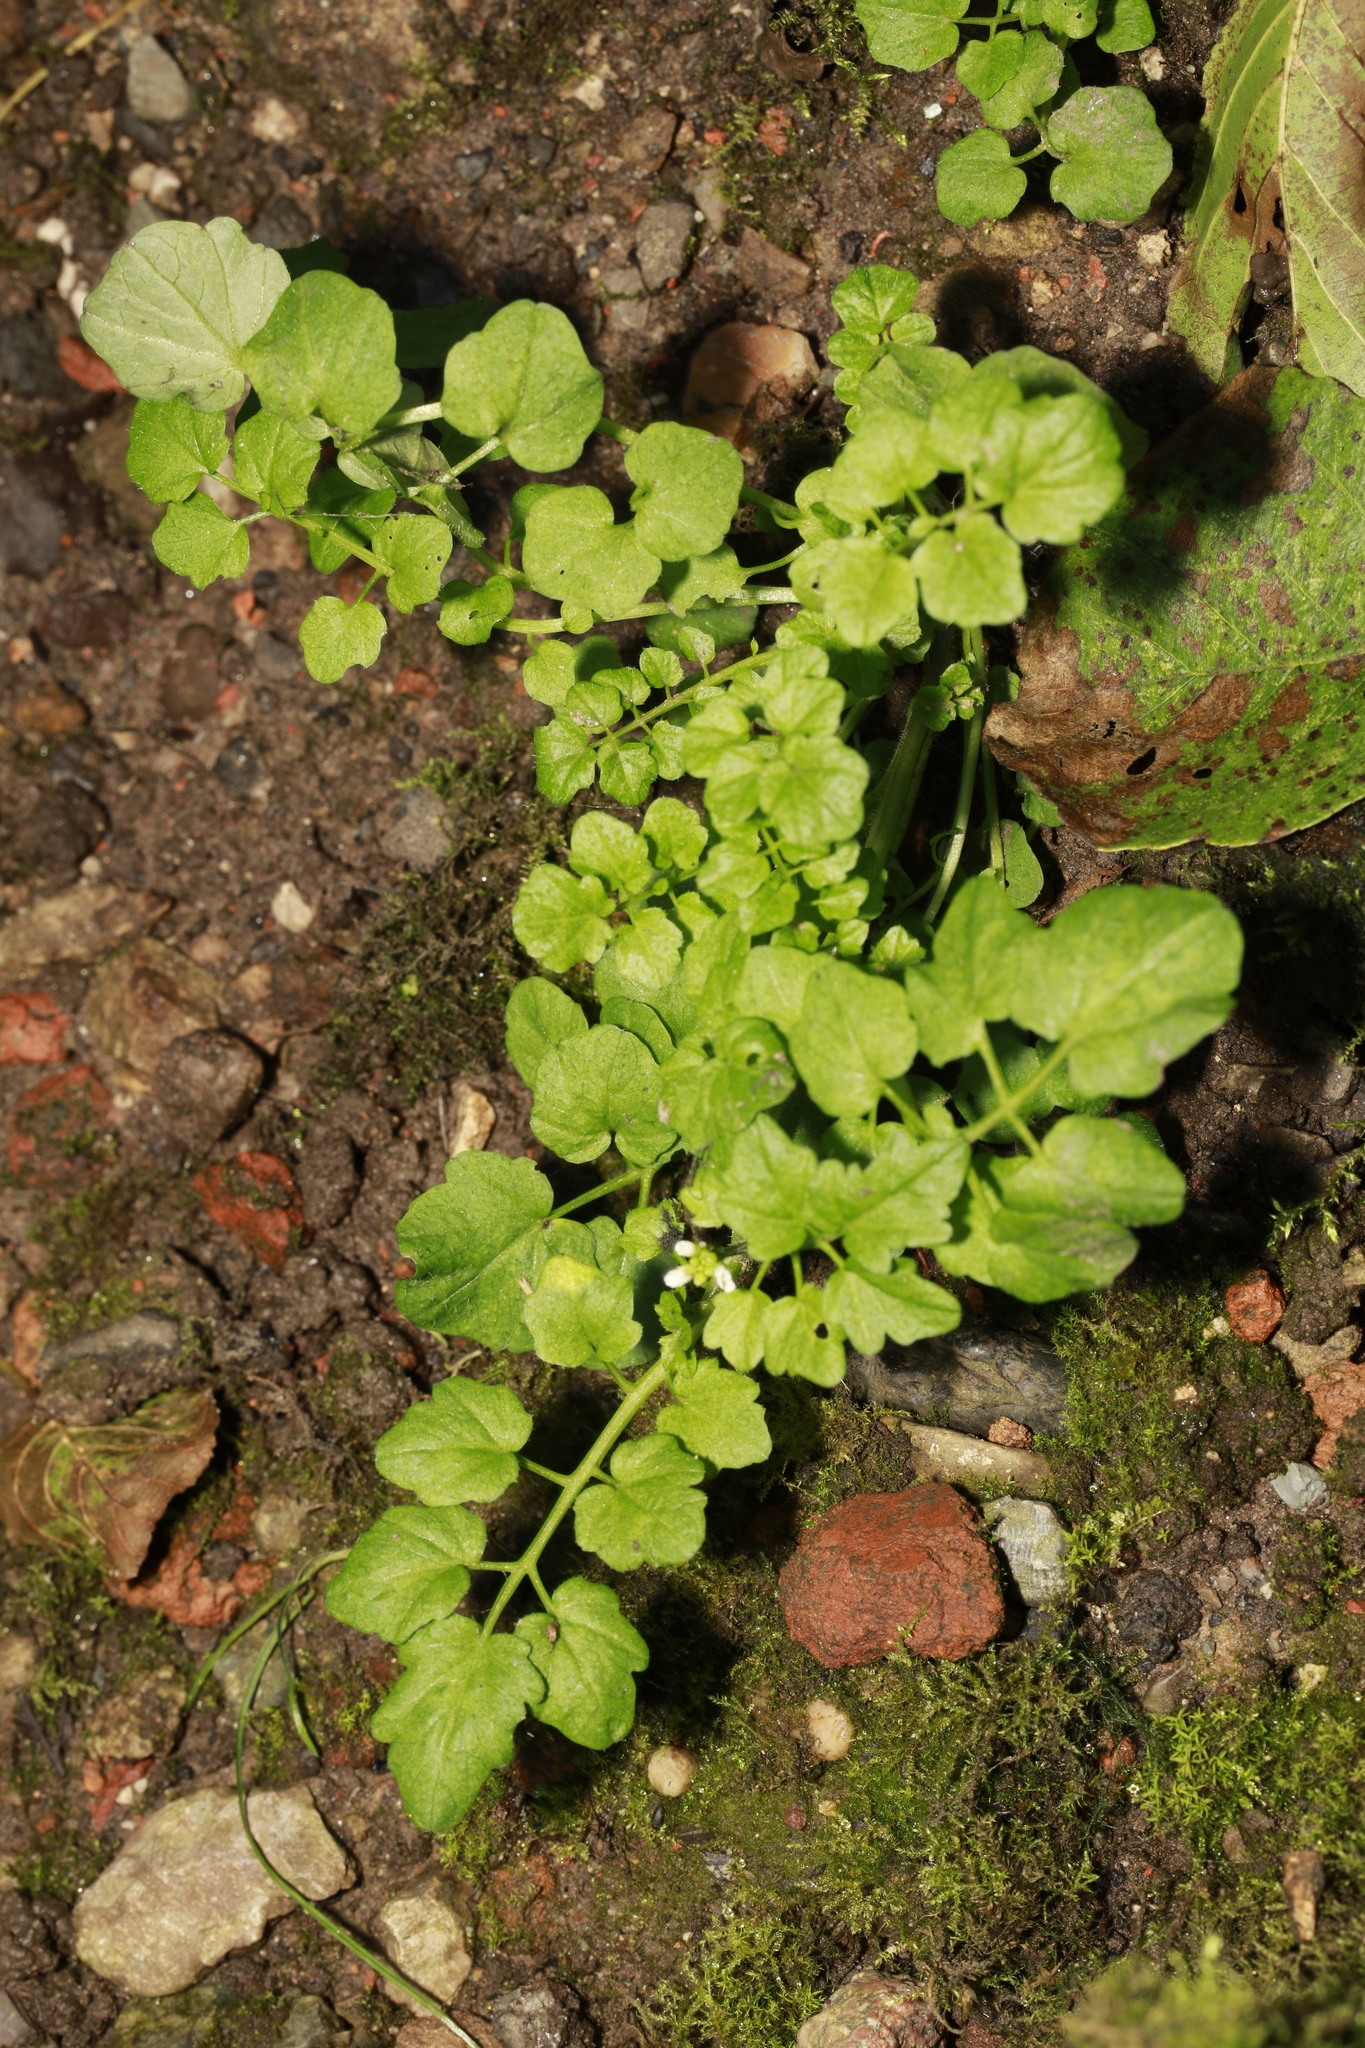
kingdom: Plantae
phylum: Tracheophyta
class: Magnoliopsida
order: Brassicales
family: Brassicaceae
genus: Cardamine
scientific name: Cardamine flexuosa
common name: Woodland bittercress
